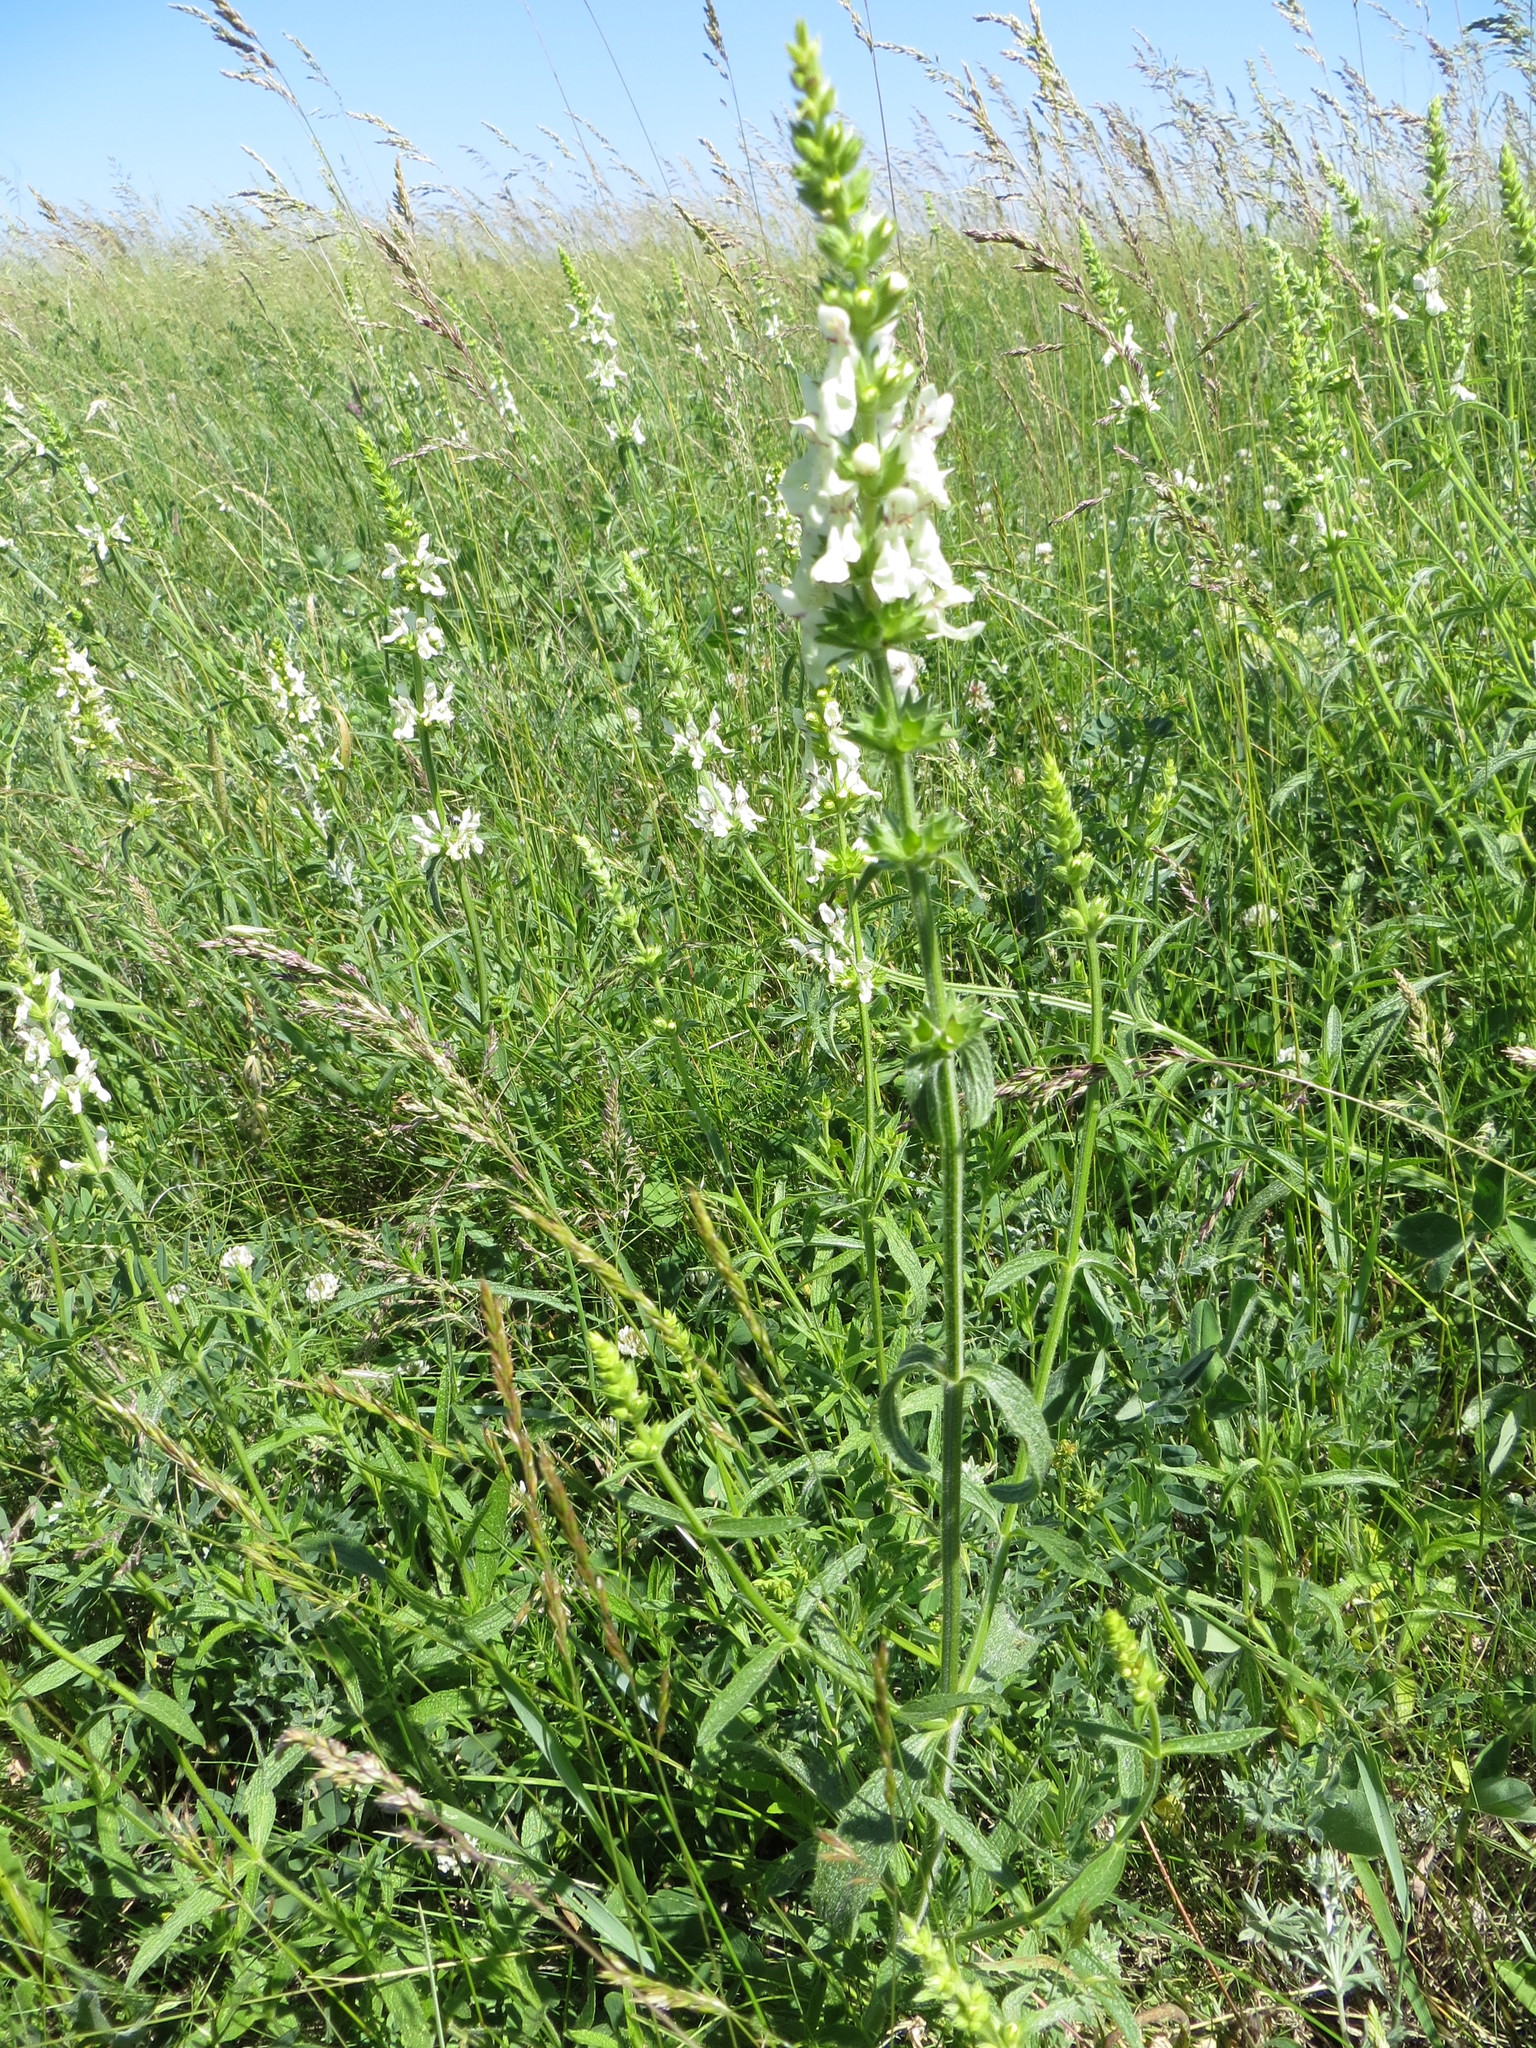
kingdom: Plantae
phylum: Tracheophyta
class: Magnoliopsida
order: Lamiales
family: Lamiaceae
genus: Stachys
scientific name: Stachys recta
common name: Perennial yellow-woundwort
